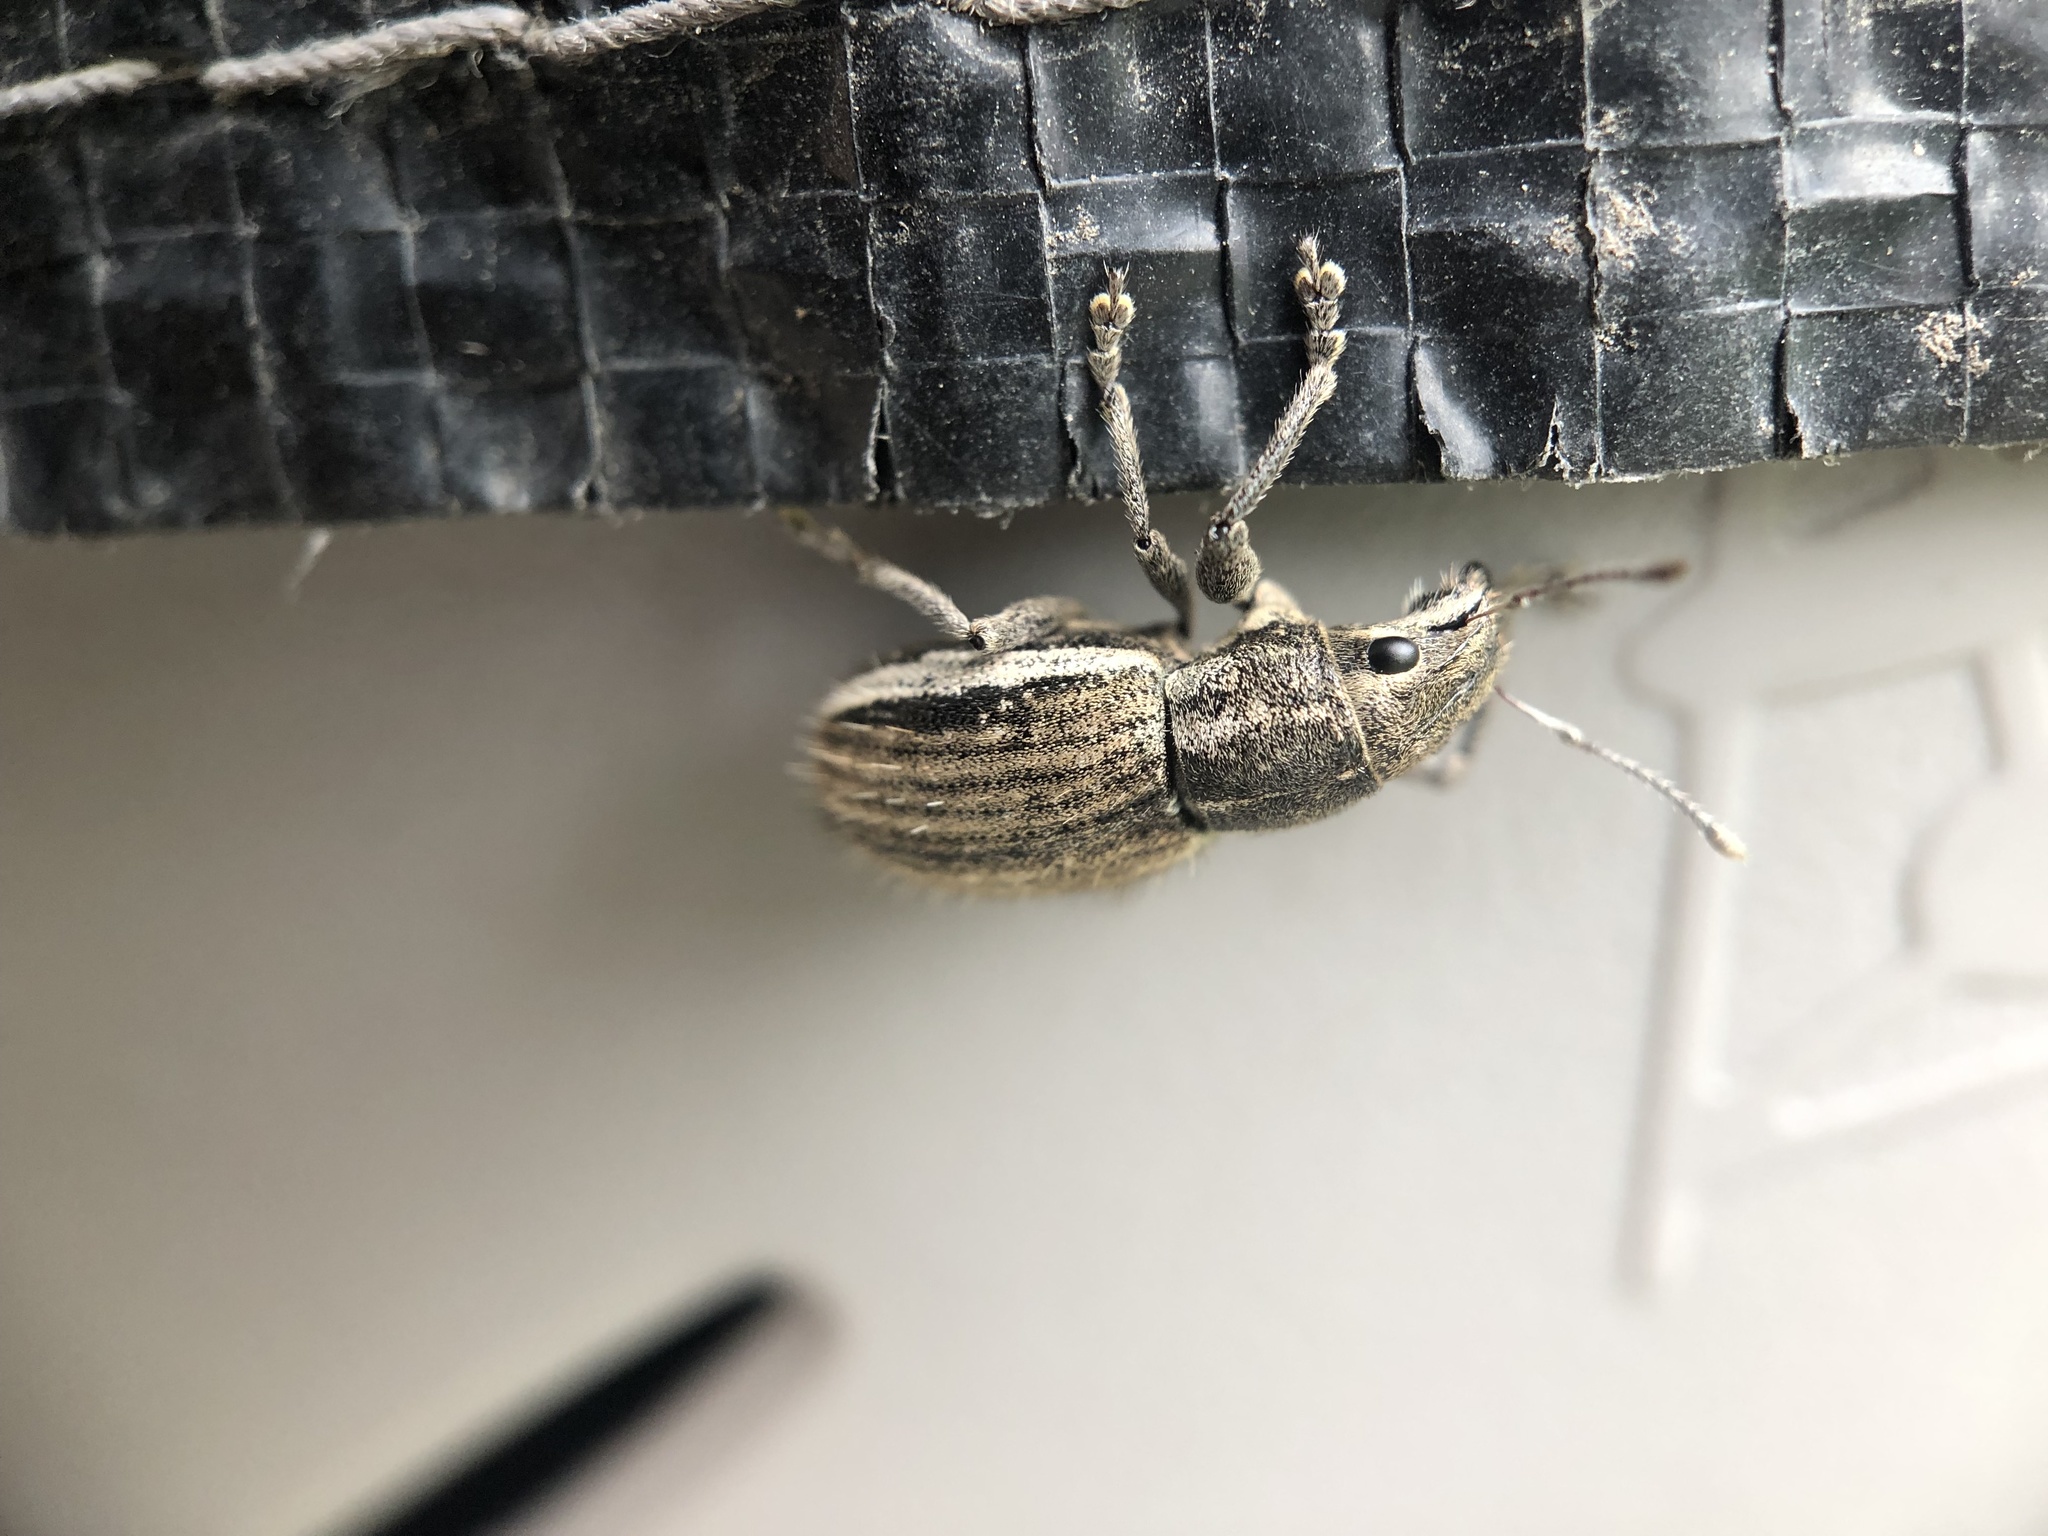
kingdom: Animalia
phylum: Arthropoda
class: Insecta
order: Coleoptera
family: Curculionidae
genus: Naupactus
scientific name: Naupactus leucoloma
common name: Whitefringed beetle
